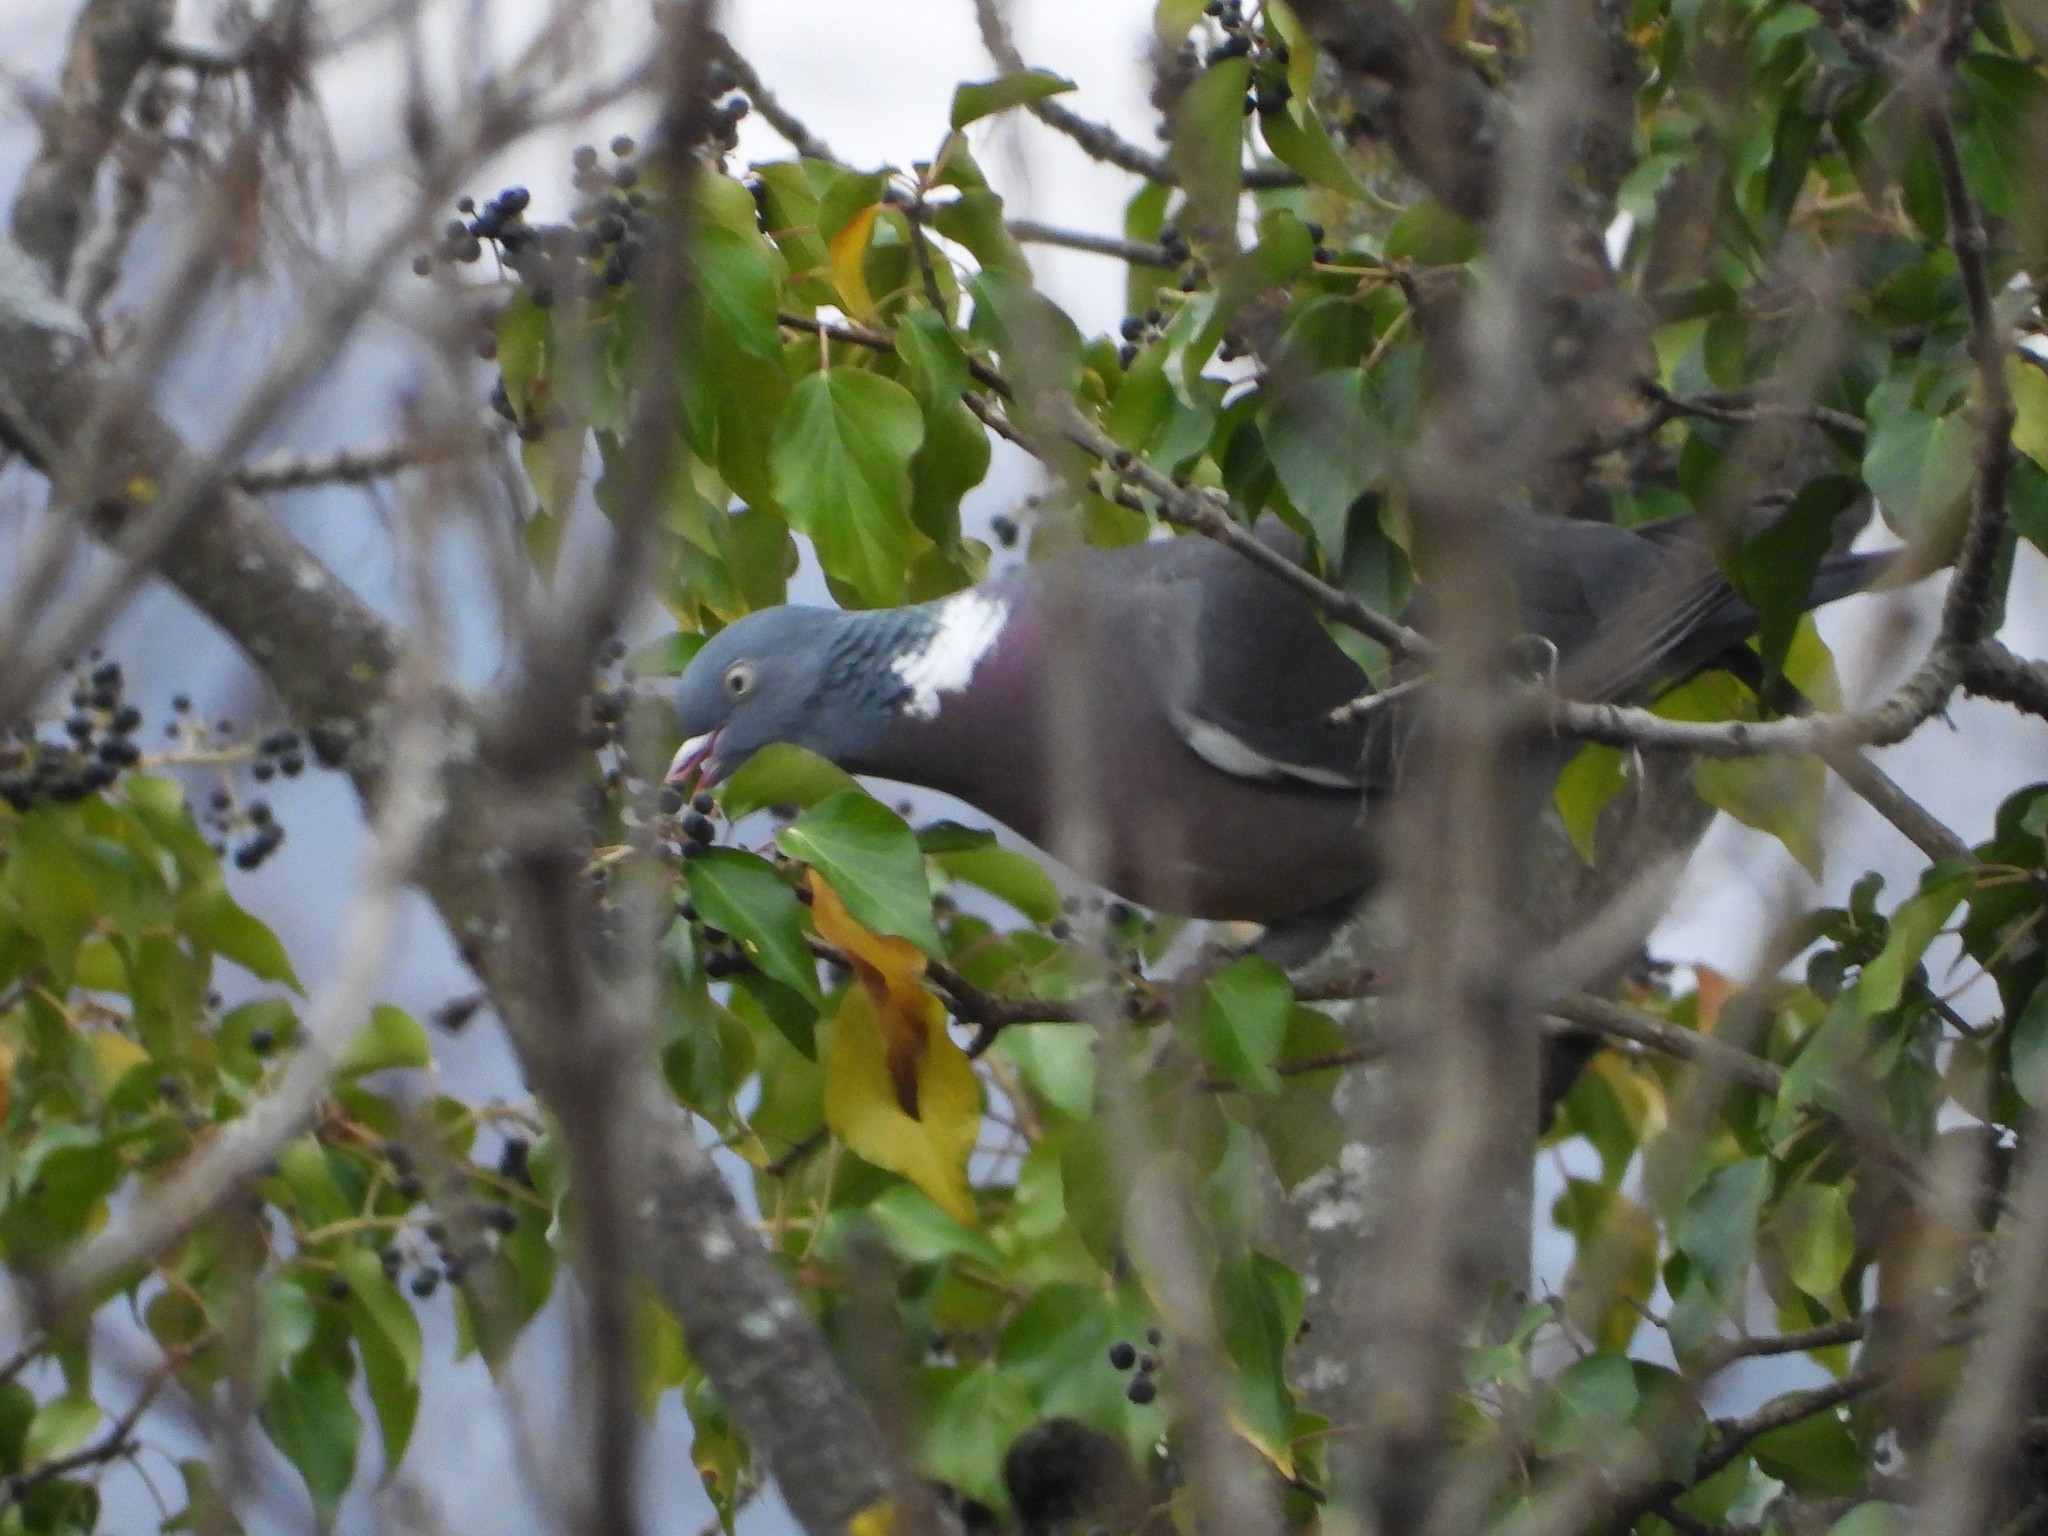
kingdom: Animalia
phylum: Chordata
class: Aves
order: Columbiformes
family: Columbidae
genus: Columba
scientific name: Columba palumbus
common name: Common wood pigeon
